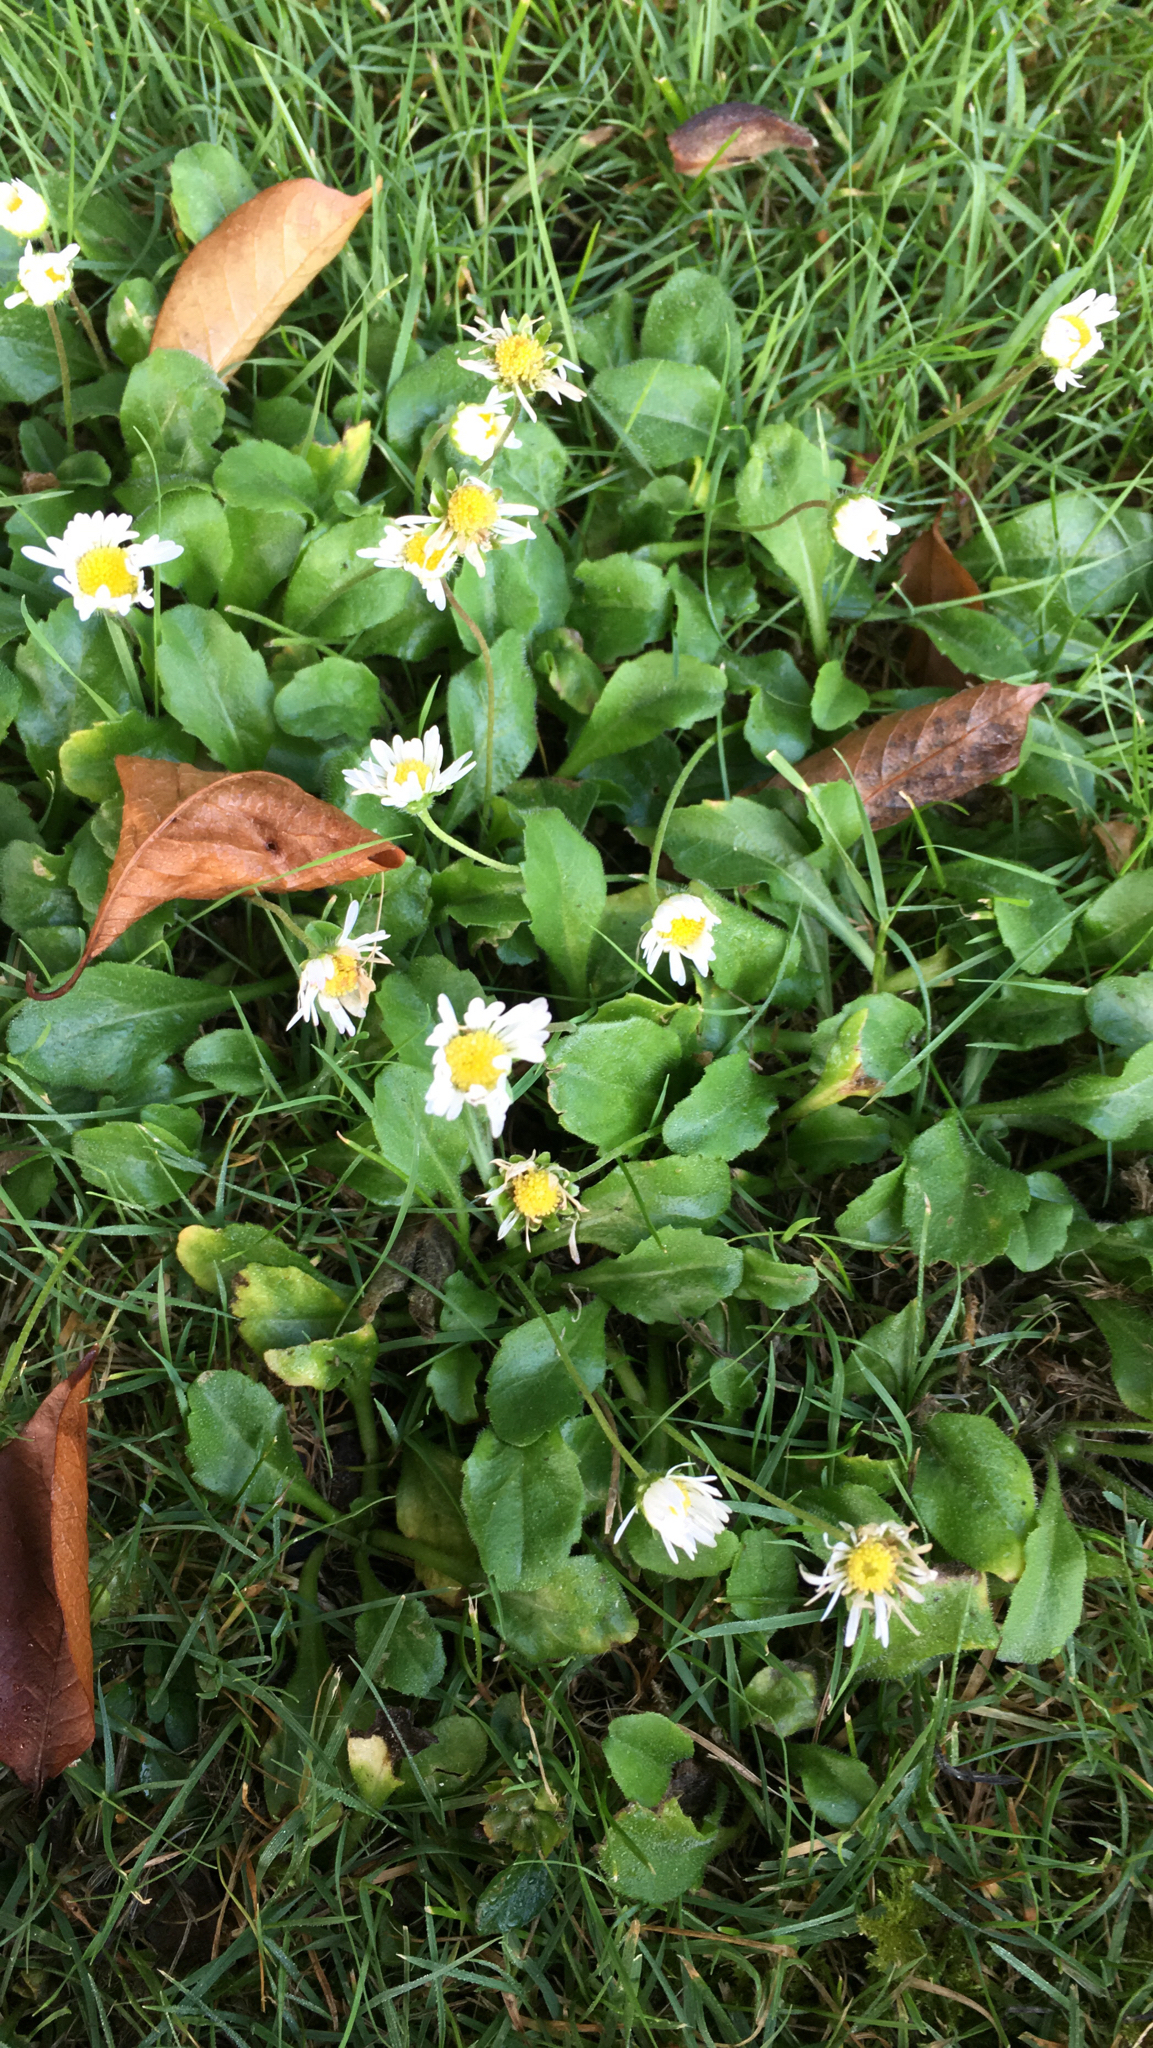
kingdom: Plantae
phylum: Tracheophyta
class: Magnoliopsida
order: Asterales
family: Asteraceae
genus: Bellis
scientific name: Bellis perennis
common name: Lawndaisy
